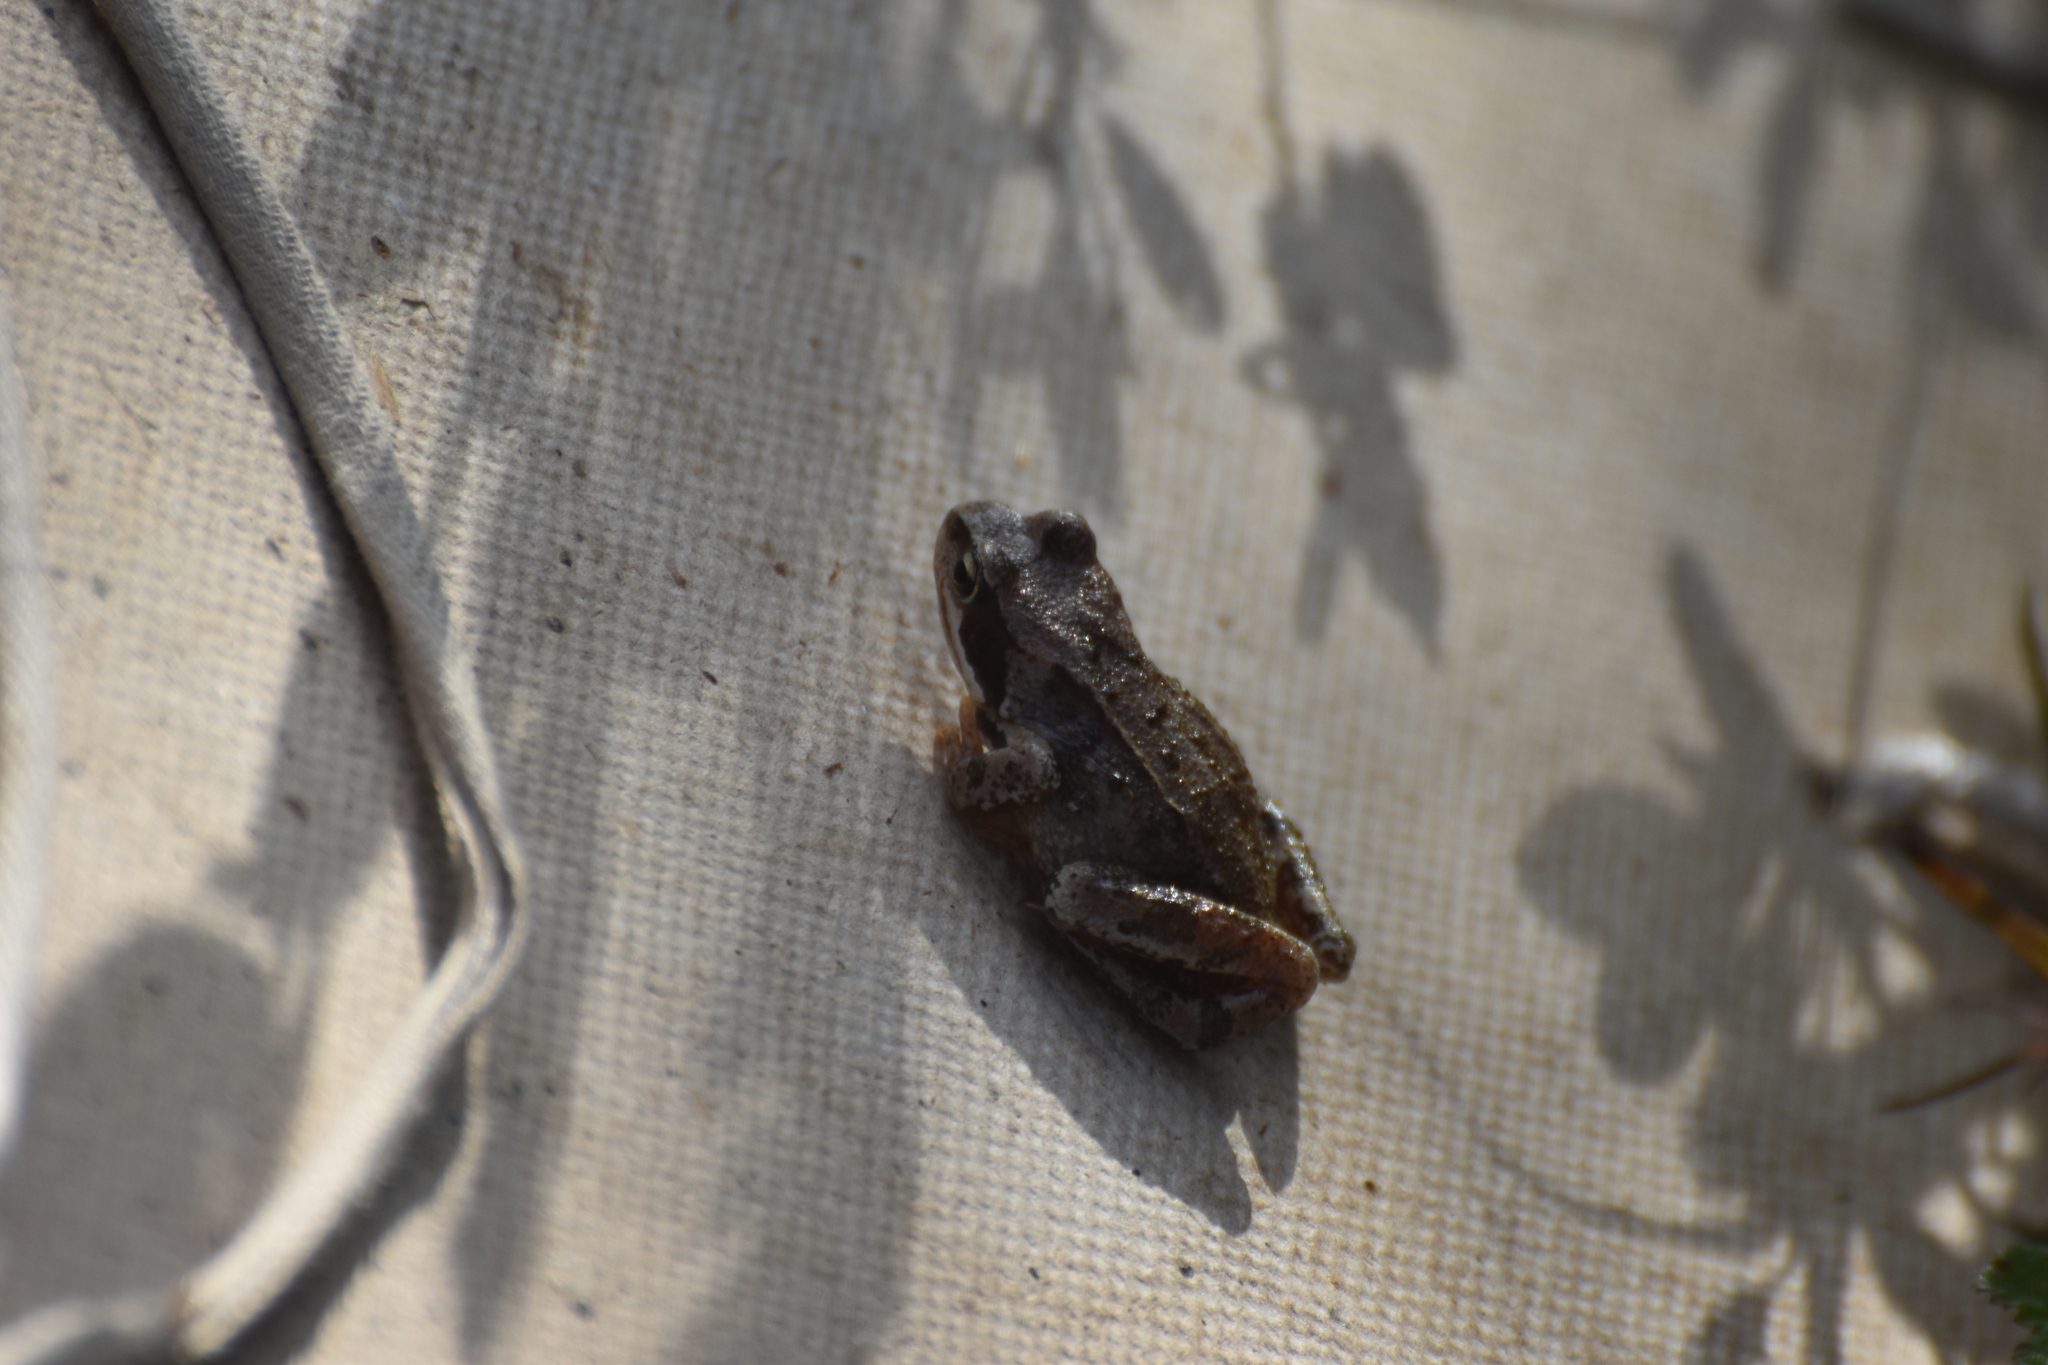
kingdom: Animalia
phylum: Chordata
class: Amphibia
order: Anura
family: Ranidae
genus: Rana
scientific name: Rana temporaria
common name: Common frog
